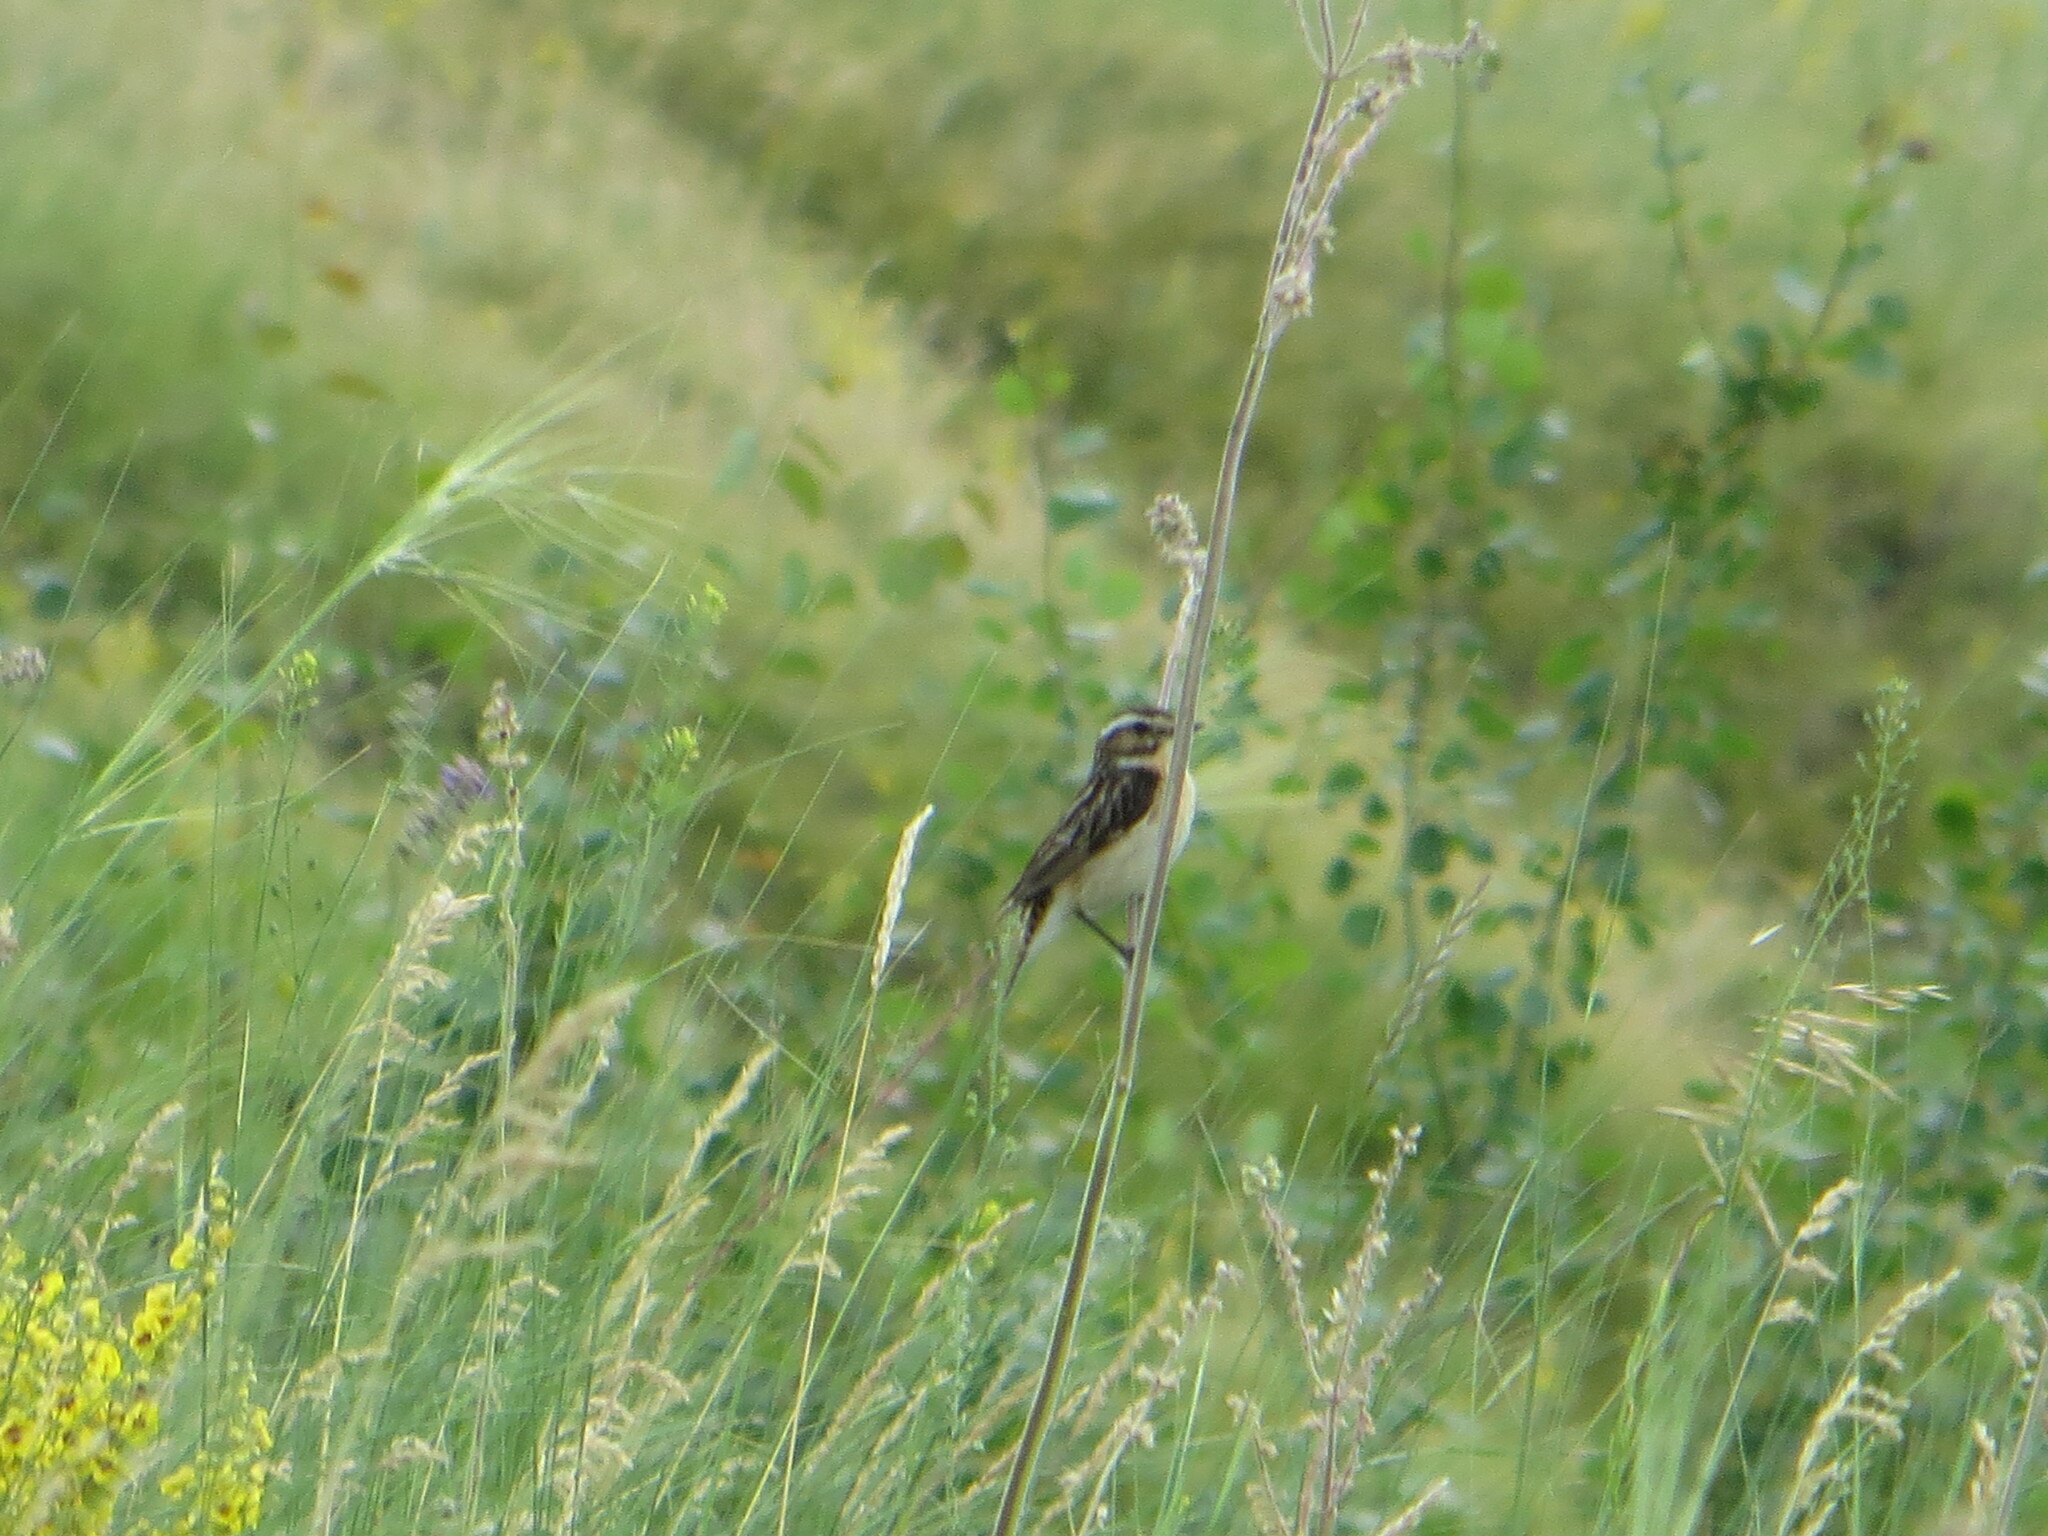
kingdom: Animalia
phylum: Chordata
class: Aves
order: Passeriformes
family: Muscicapidae
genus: Saxicola
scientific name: Saxicola rubetra
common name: Whinchat
